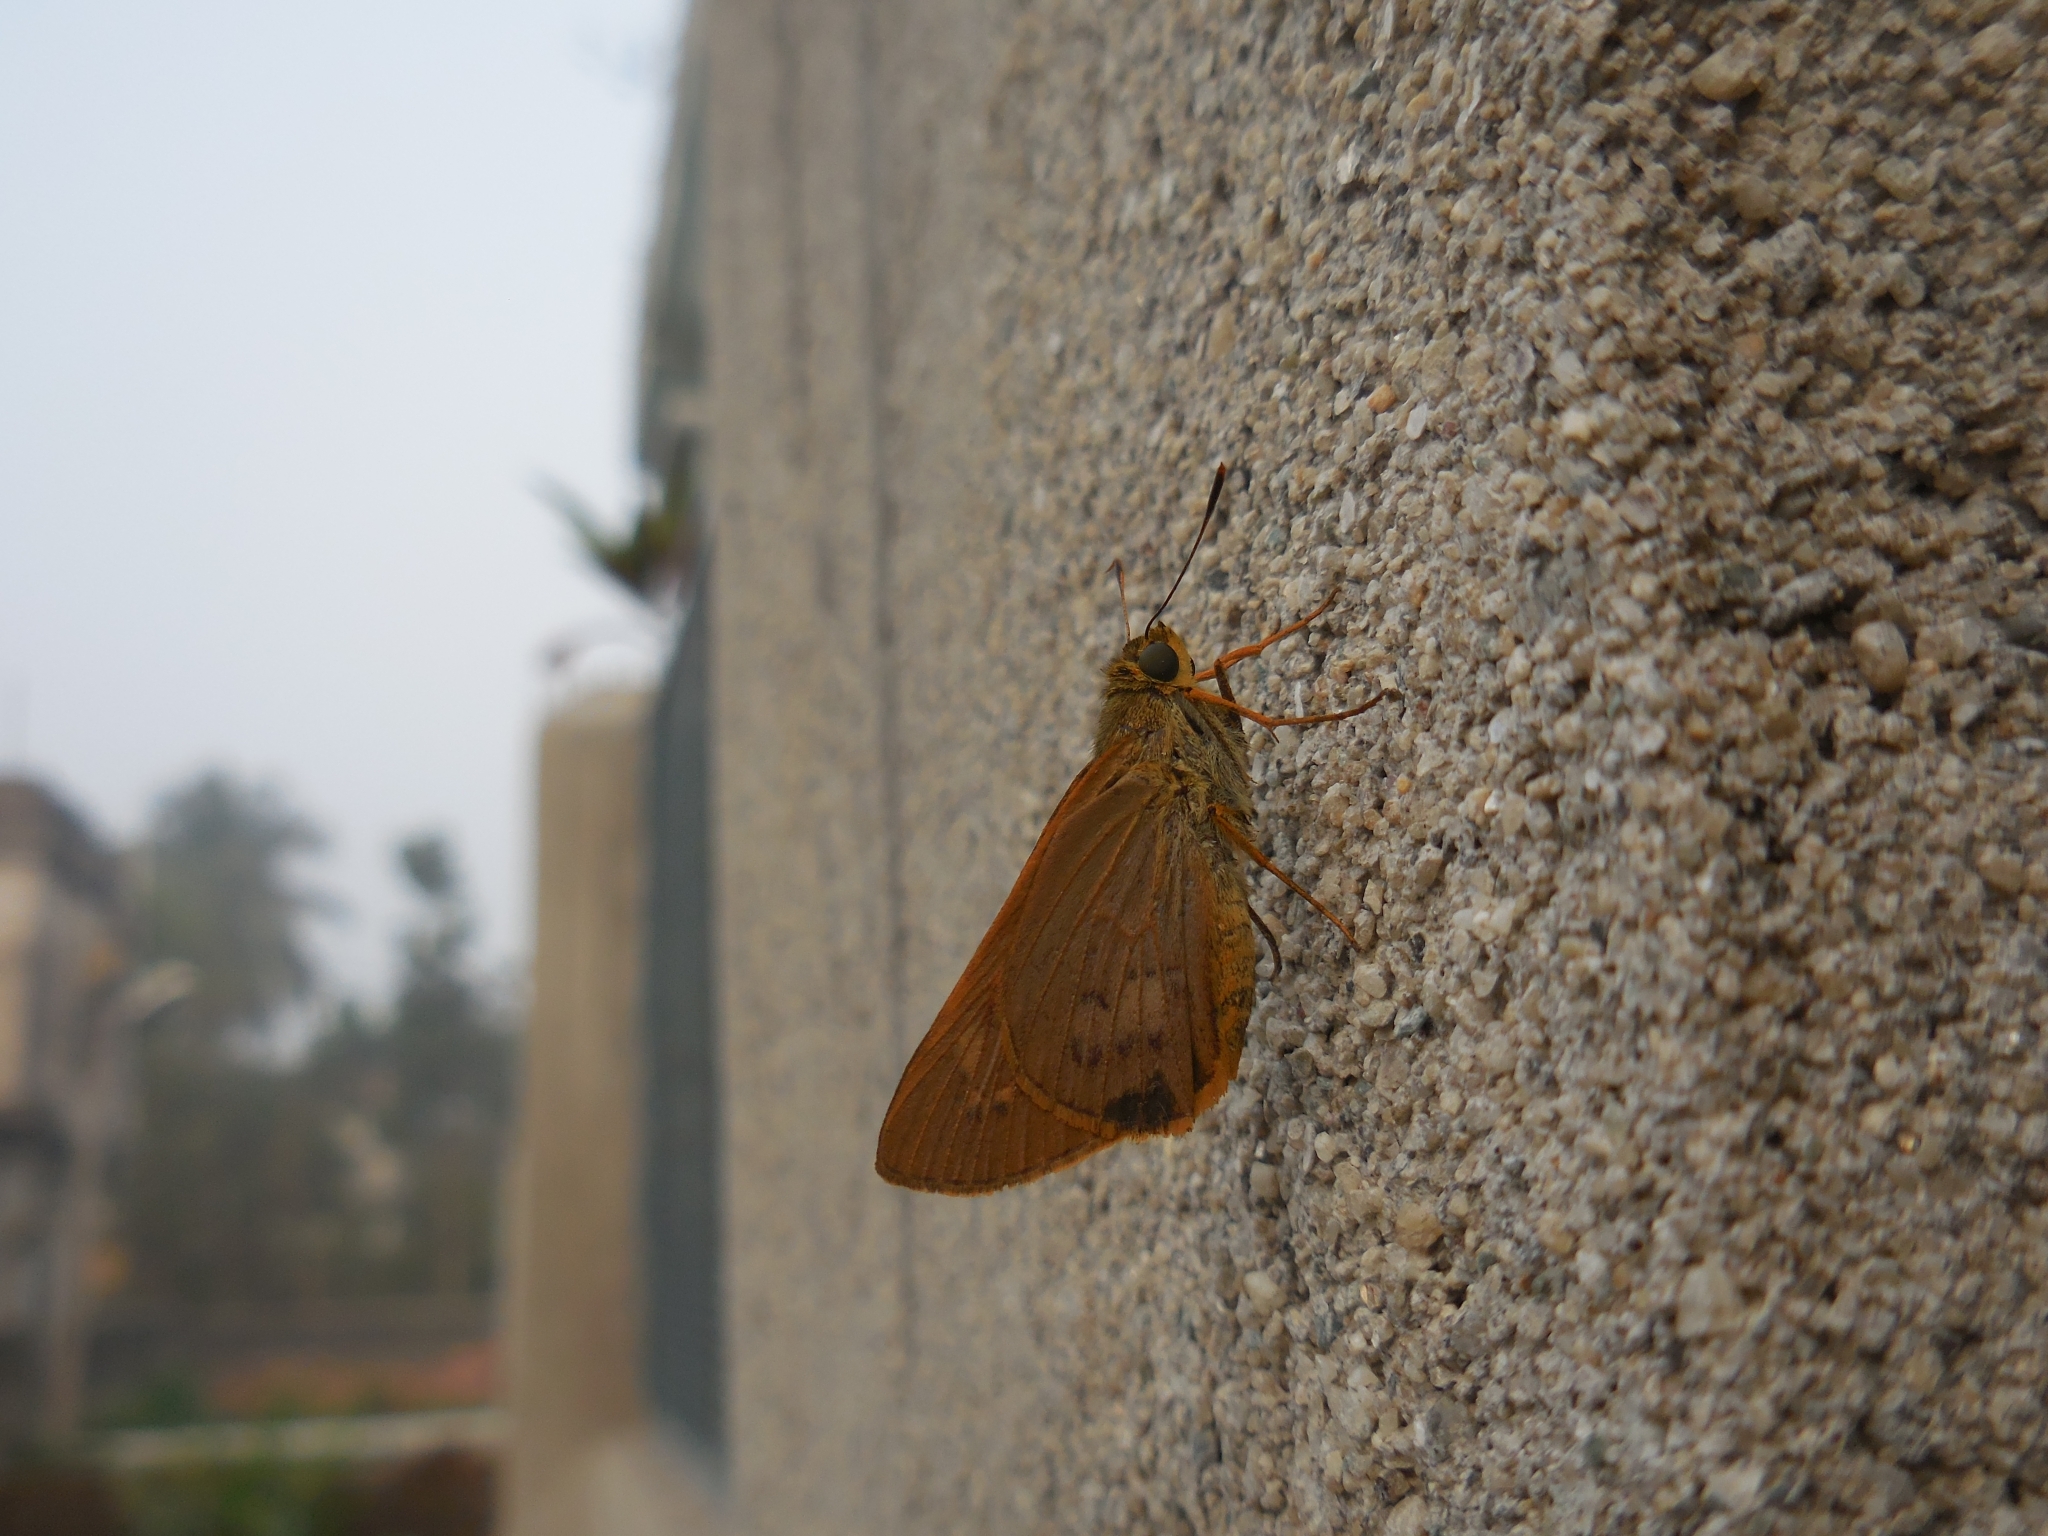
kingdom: Animalia
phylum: Arthropoda
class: Insecta
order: Lepidoptera
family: Hesperiidae
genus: Cephrenes
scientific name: Cephrenes
